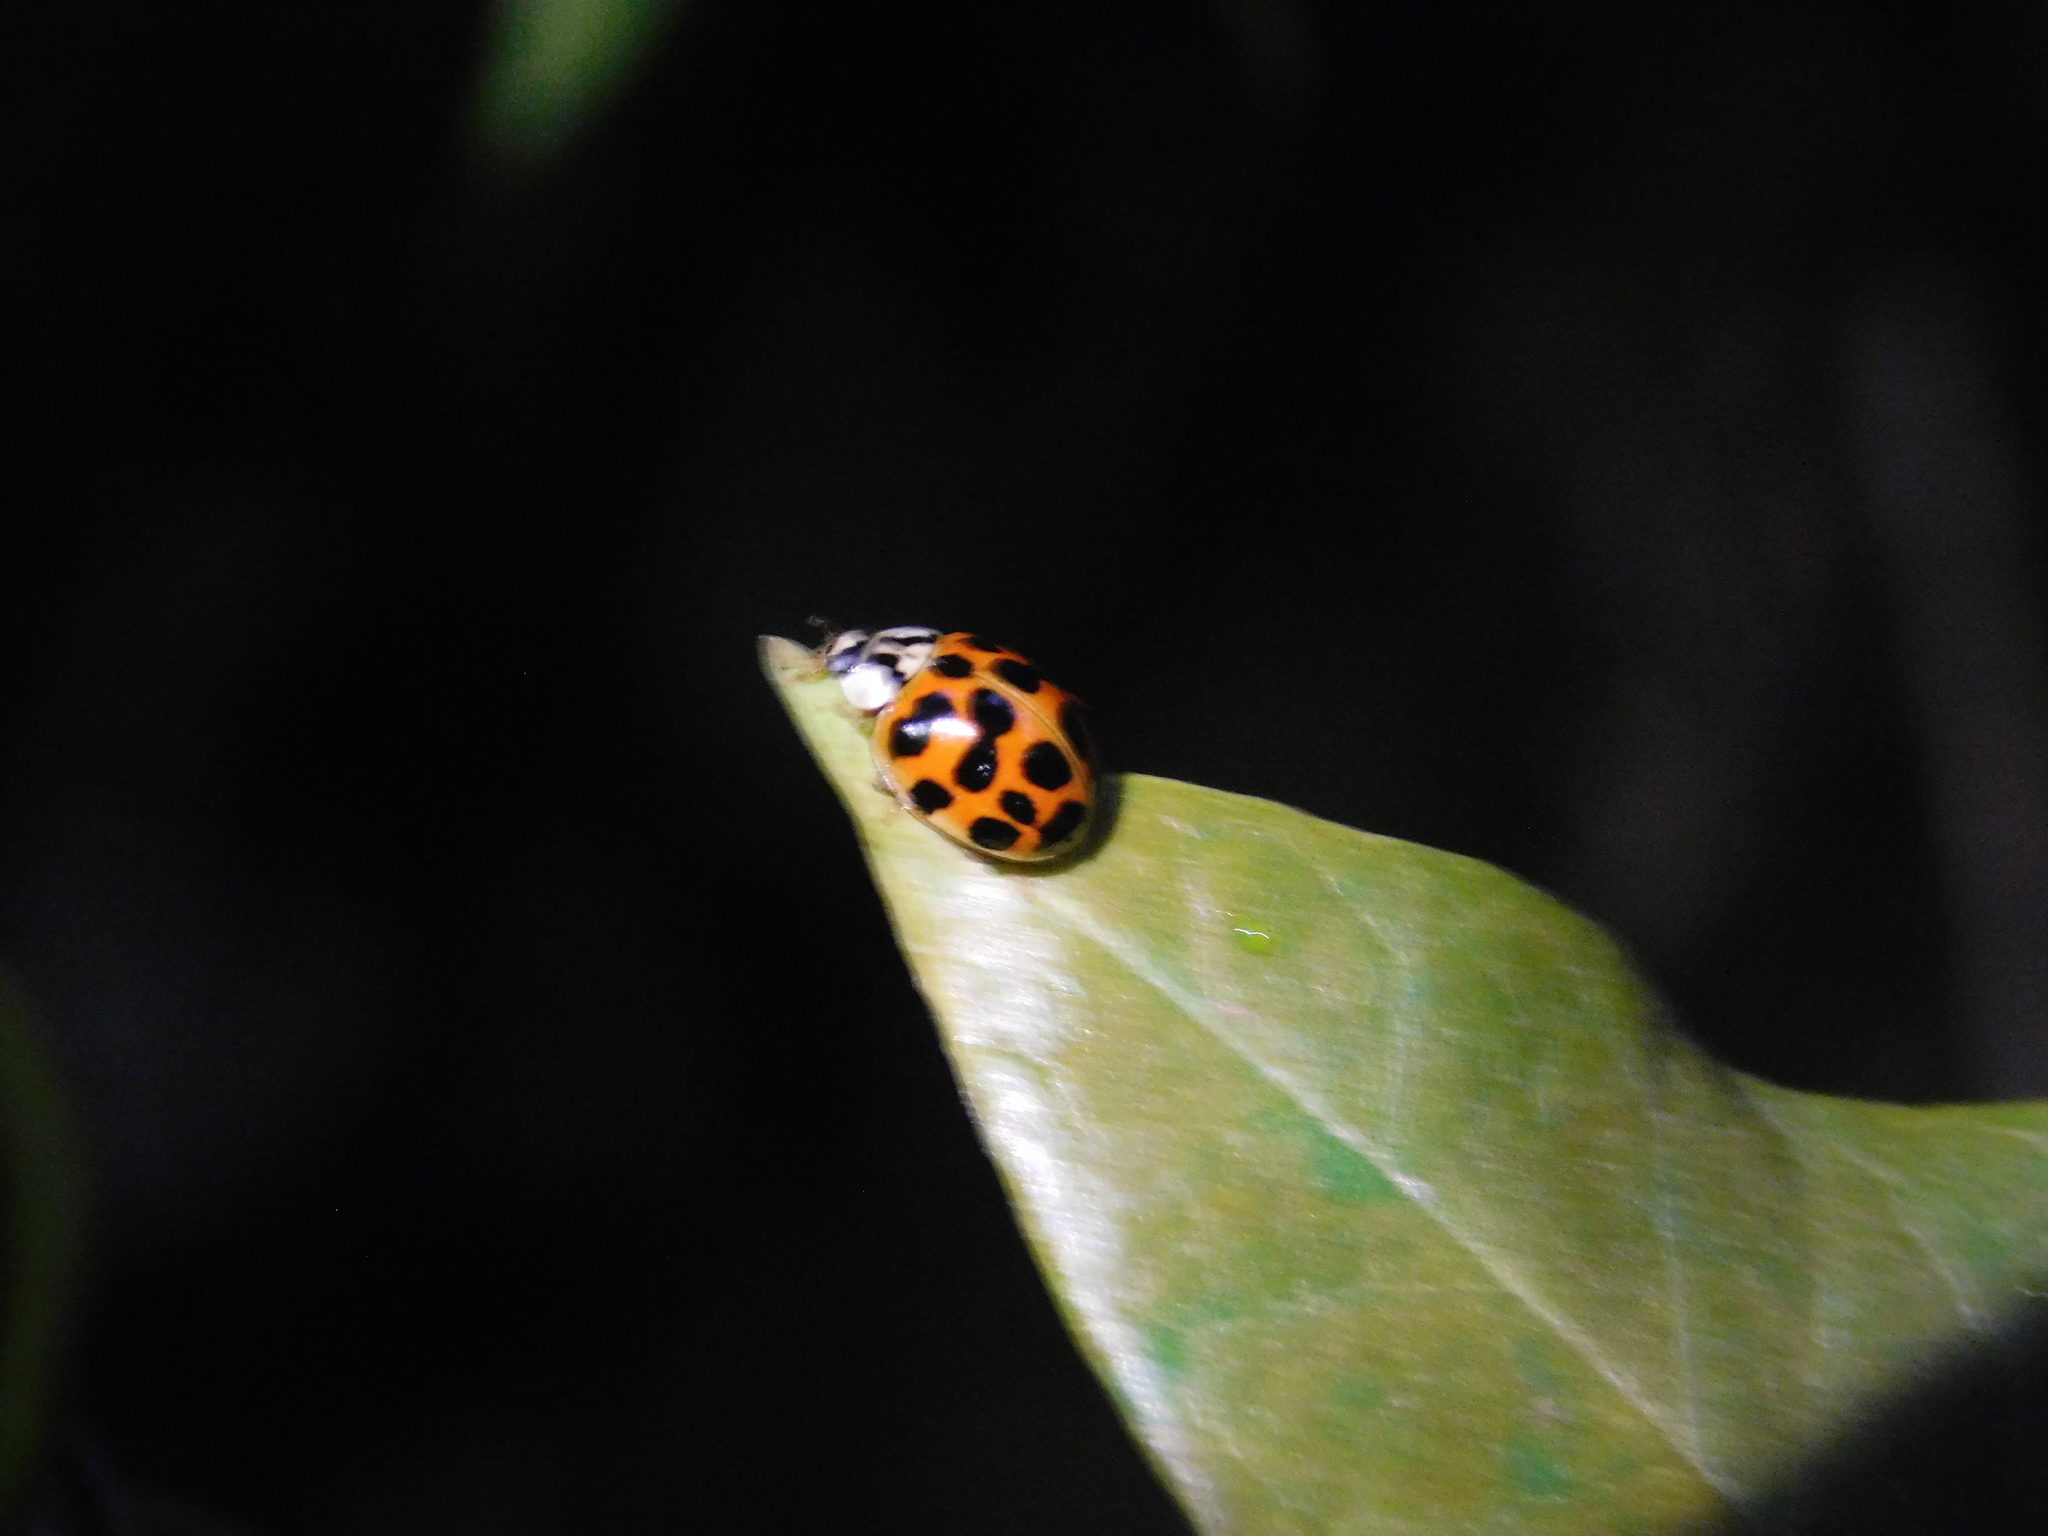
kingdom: Animalia
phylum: Arthropoda
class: Insecta
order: Coleoptera
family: Coccinellidae
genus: Harmonia
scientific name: Harmonia axyridis
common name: Harlequin ladybird
